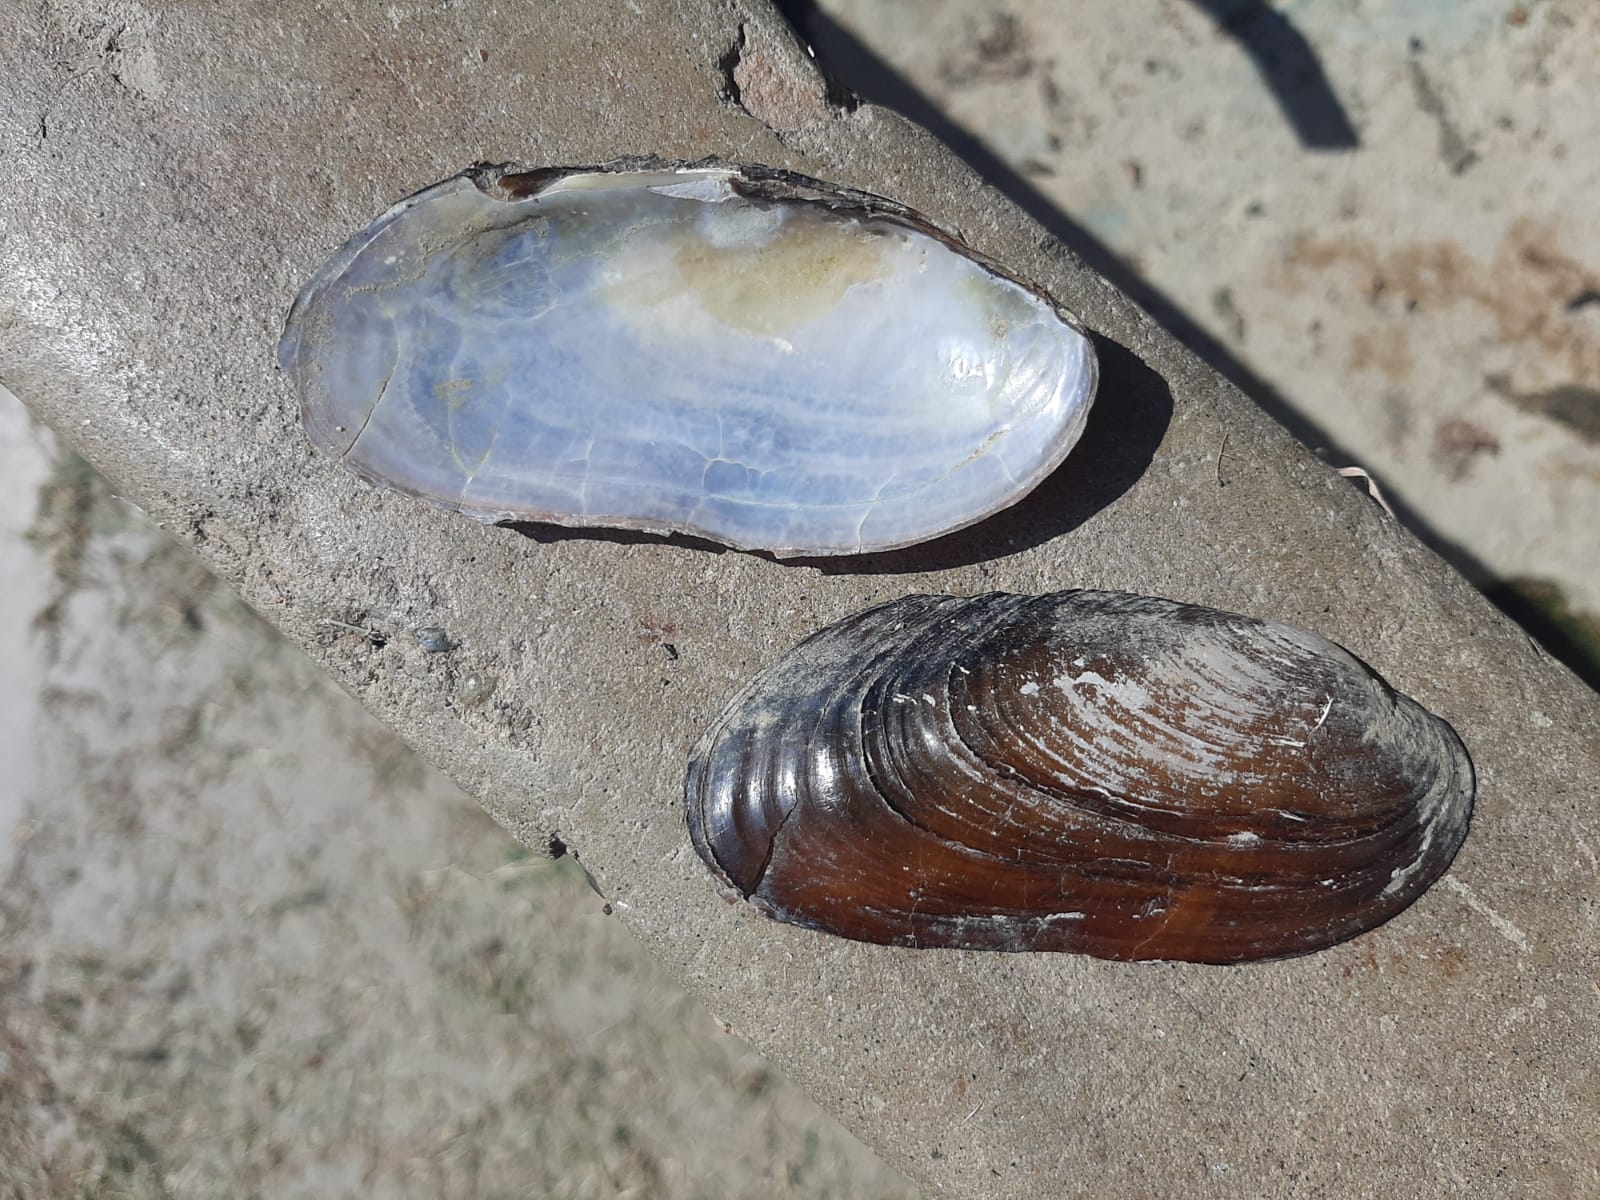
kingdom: Animalia
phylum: Mollusca
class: Bivalvia
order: Unionida
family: Unionidae
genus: Microcondylaea
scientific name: Microcondylaea bonellii
